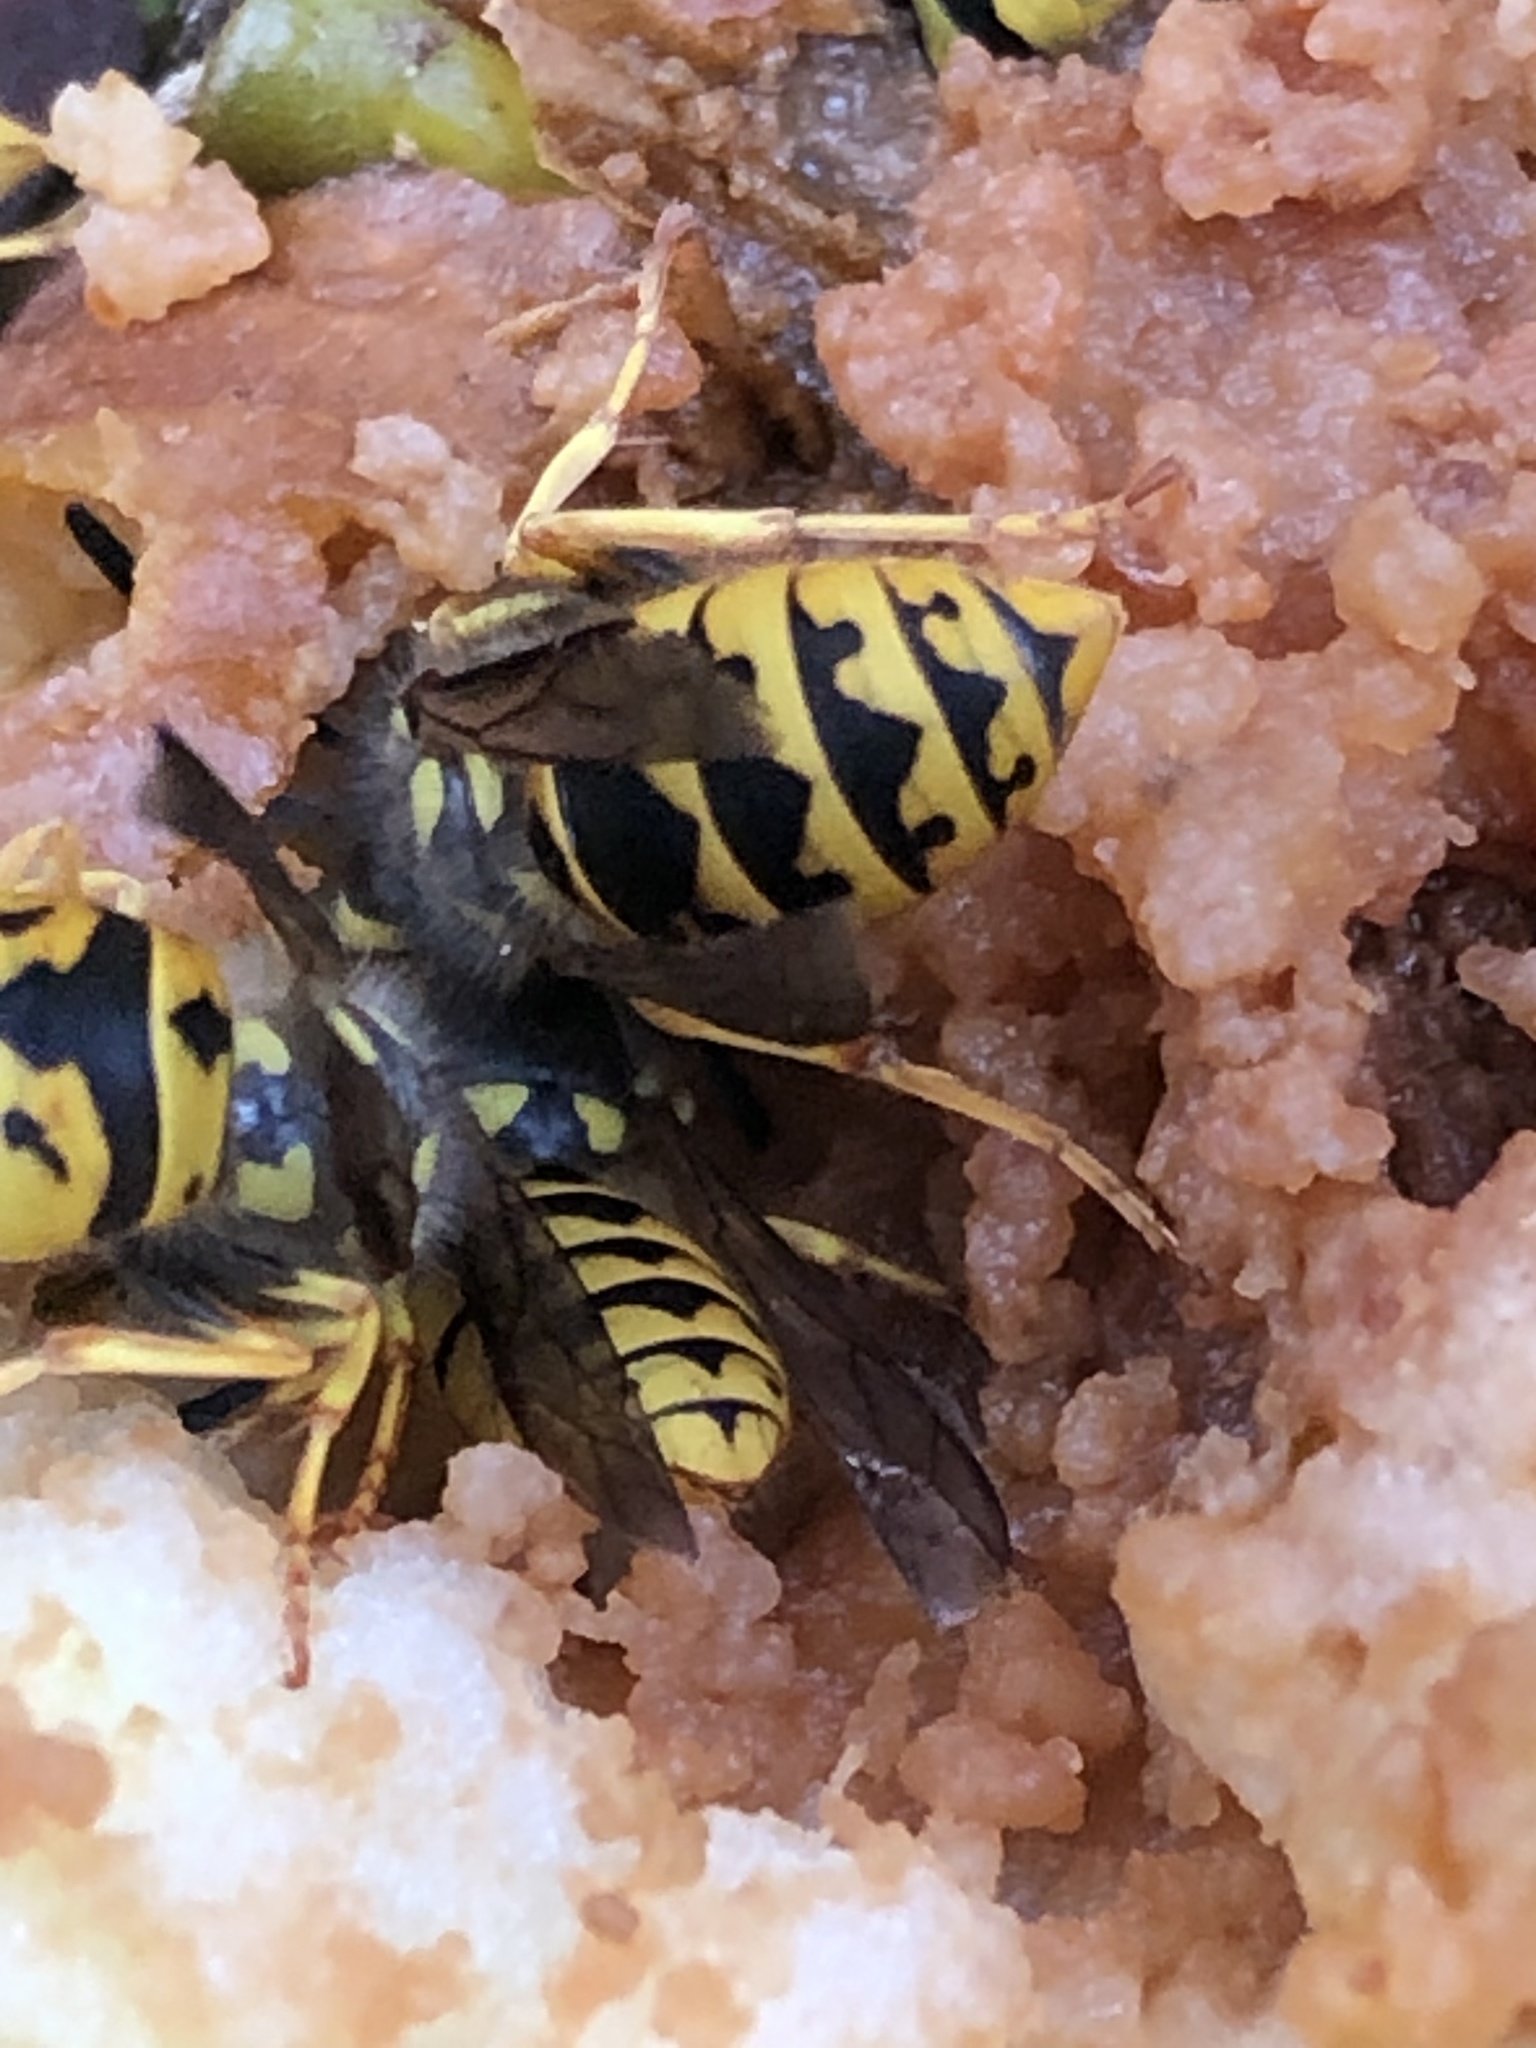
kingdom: Animalia
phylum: Arthropoda
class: Insecta
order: Hymenoptera
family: Vespidae
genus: Vespula
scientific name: Vespula germanica
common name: German wasp
